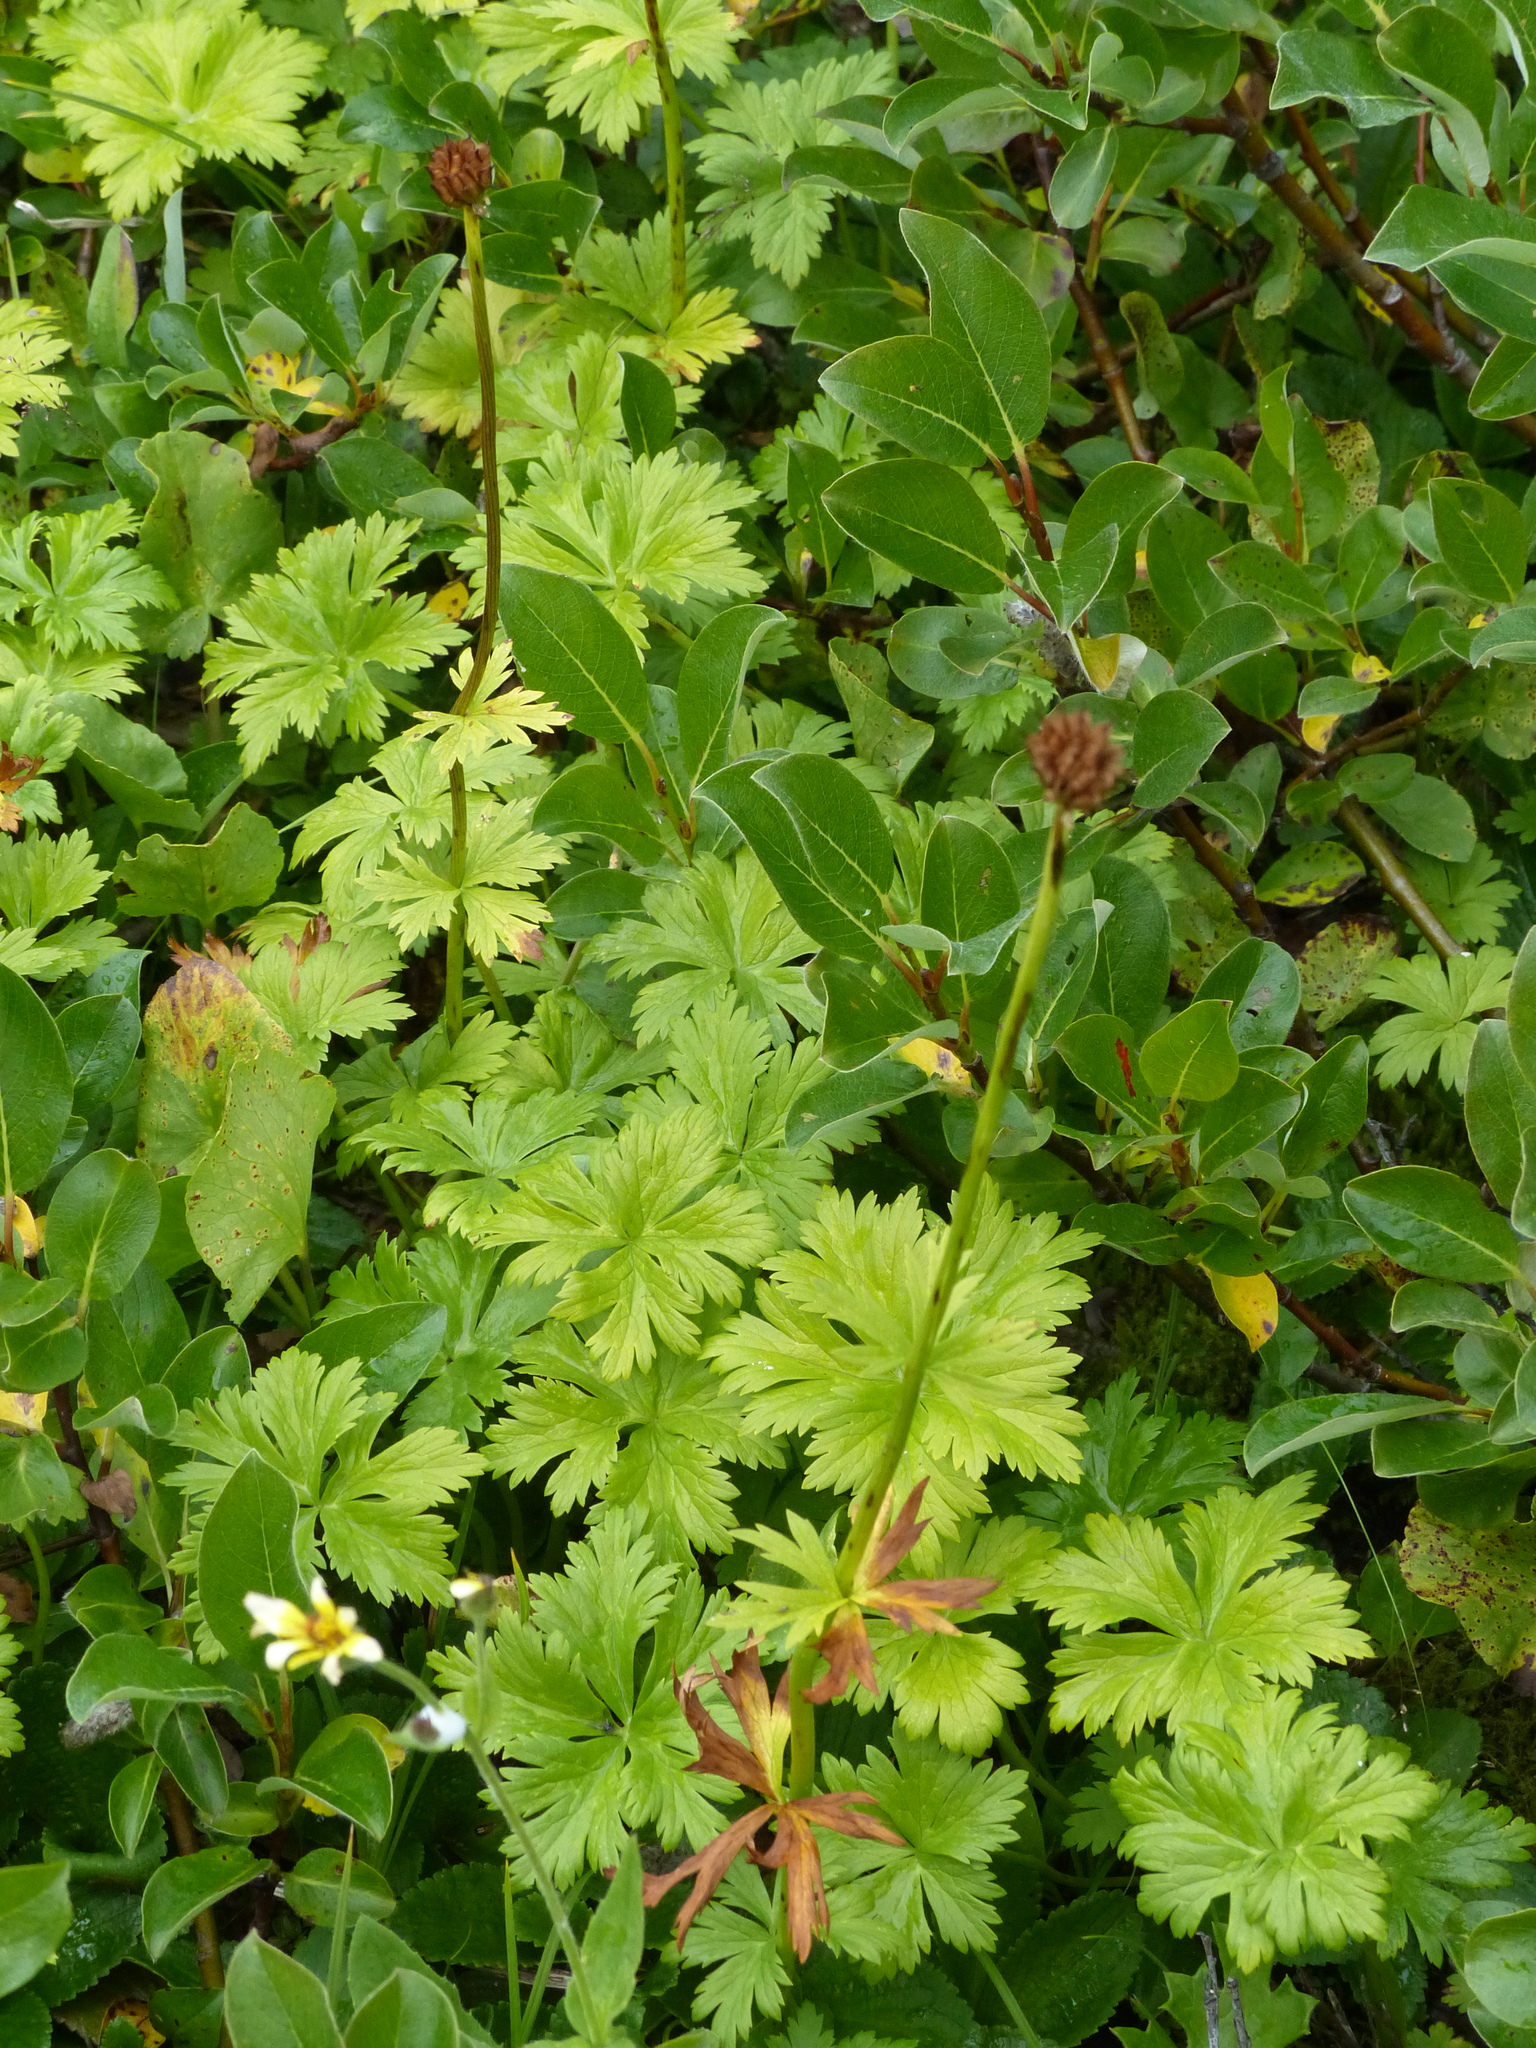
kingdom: Plantae
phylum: Tracheophyta
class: Magnoliopsida
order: Ranunculales
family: Ranunculaceae
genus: Trollius
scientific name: Trollius laxus
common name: American globeflower
